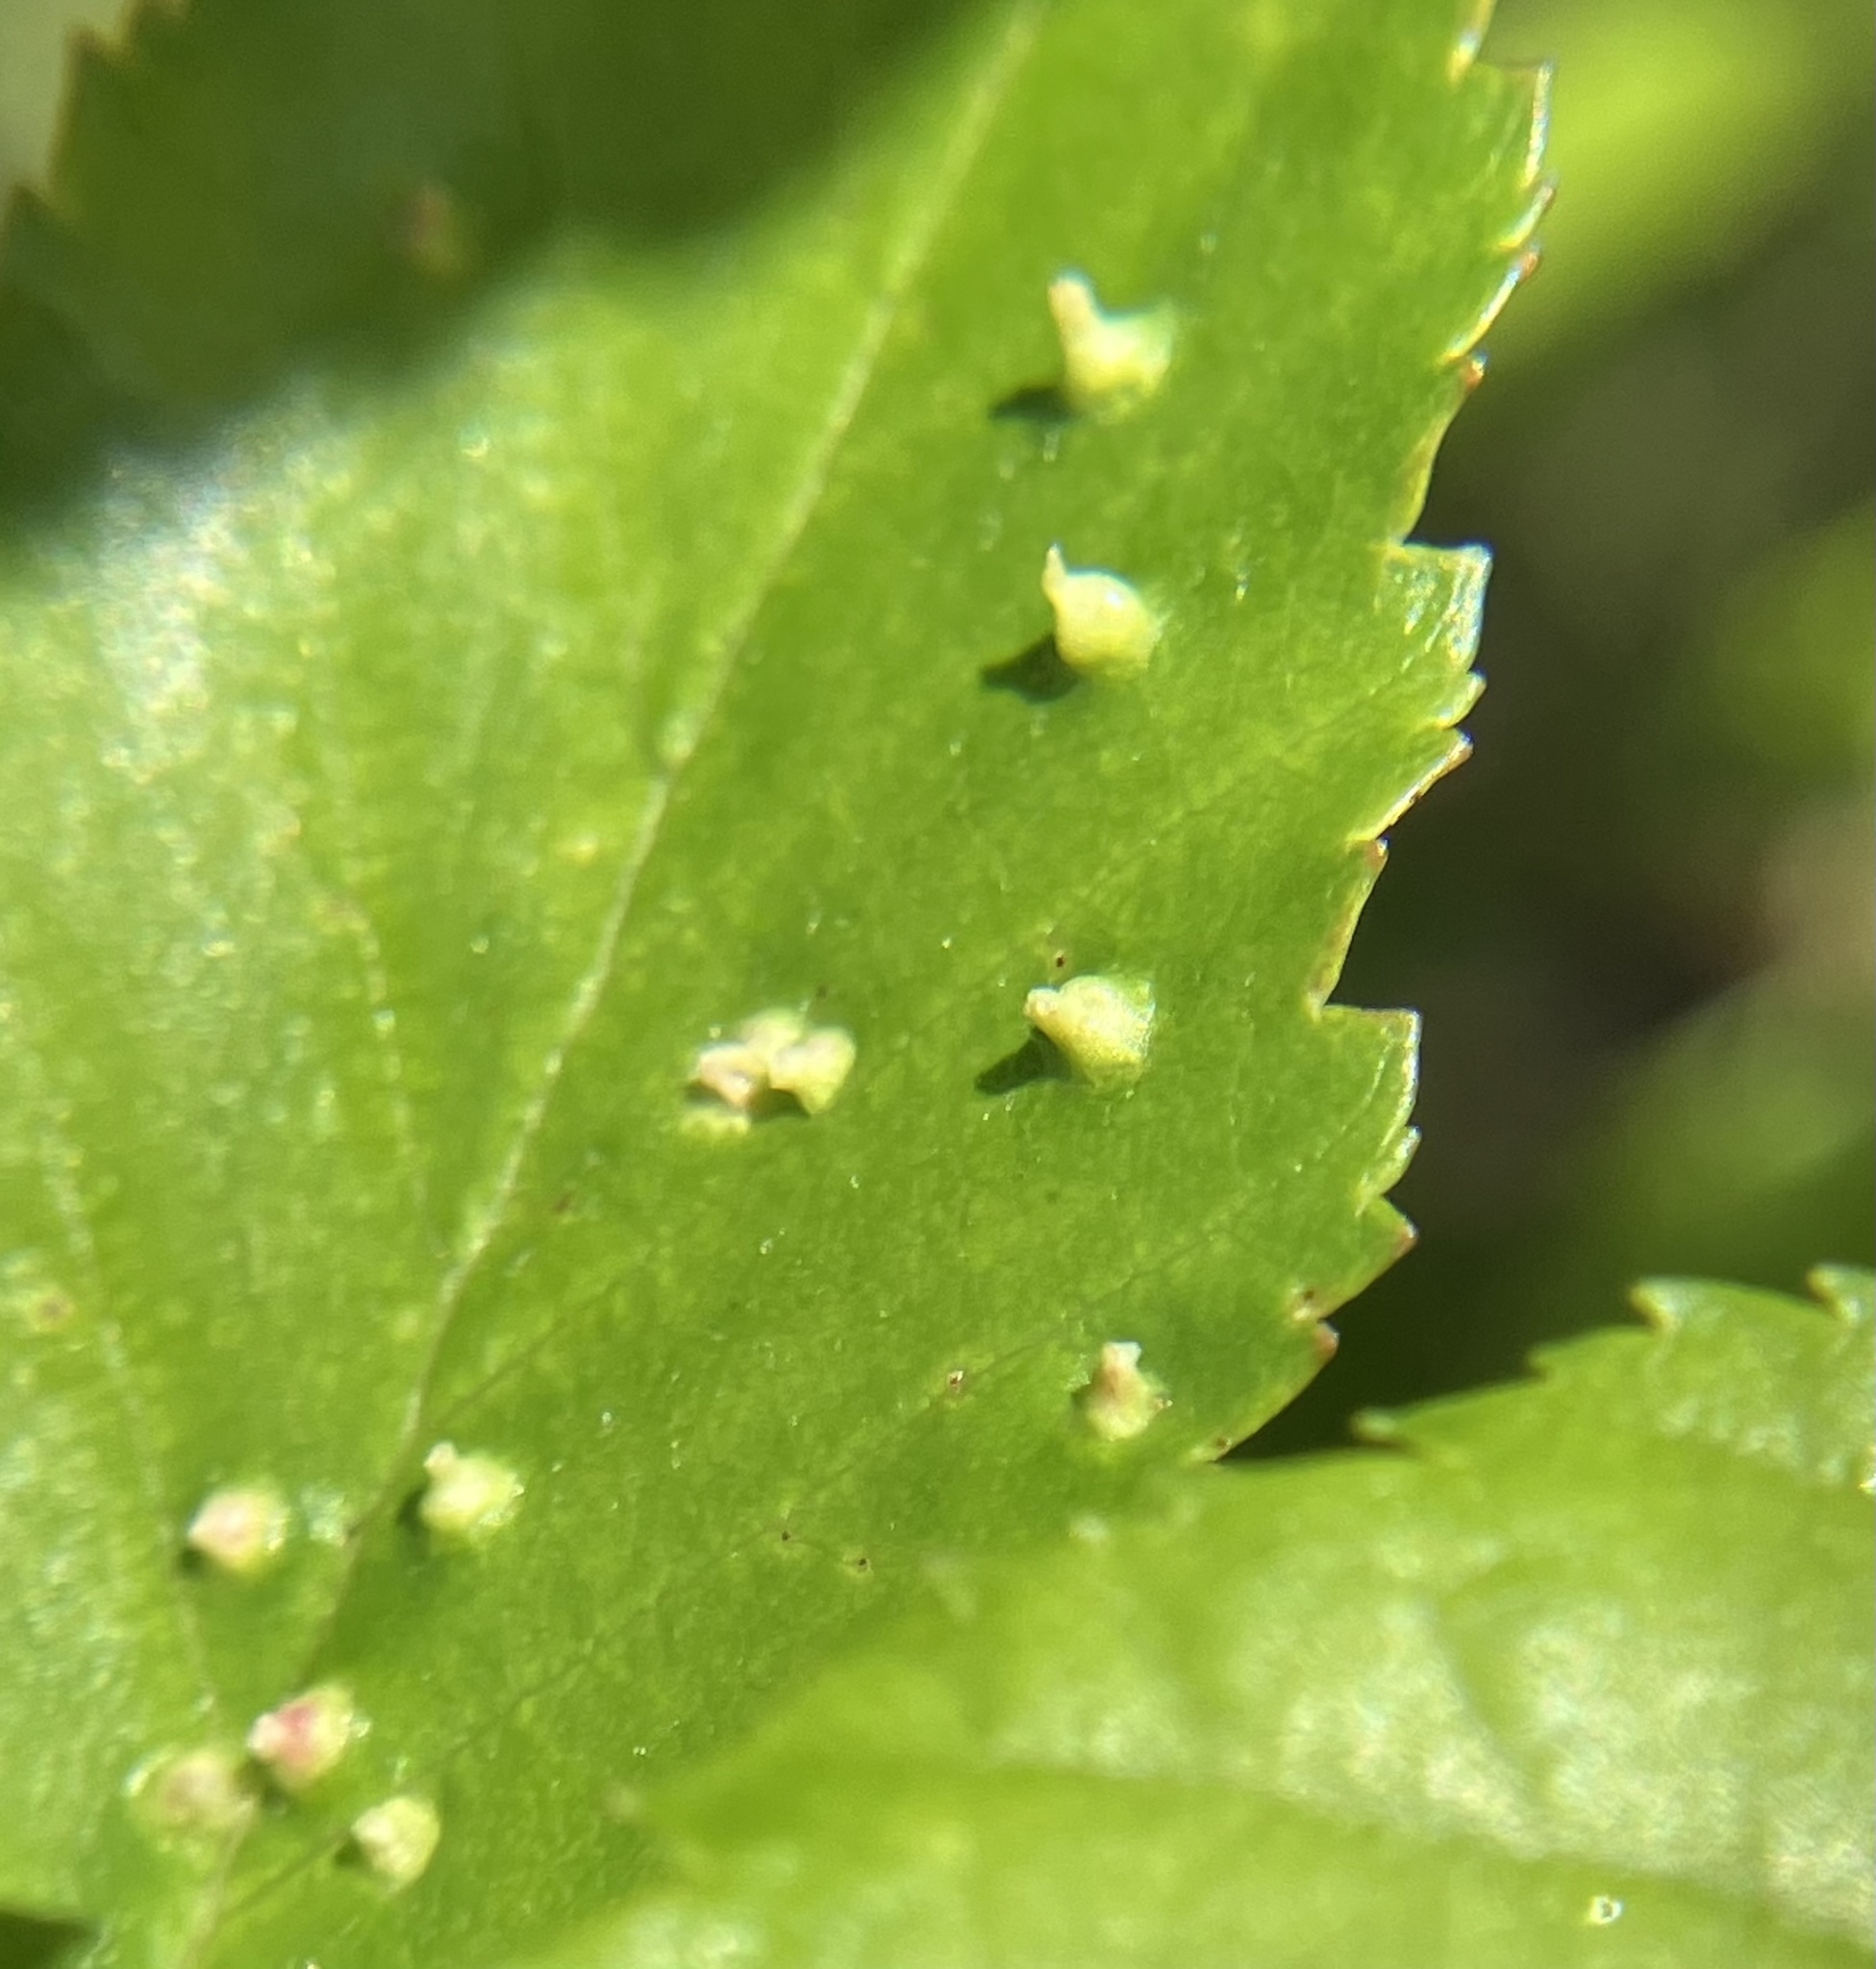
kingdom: Animalia
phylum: Arthropoda
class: Arachnida
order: Trombidiformes
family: Eriophyidae
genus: Aculus
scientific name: Aculus leionotus
